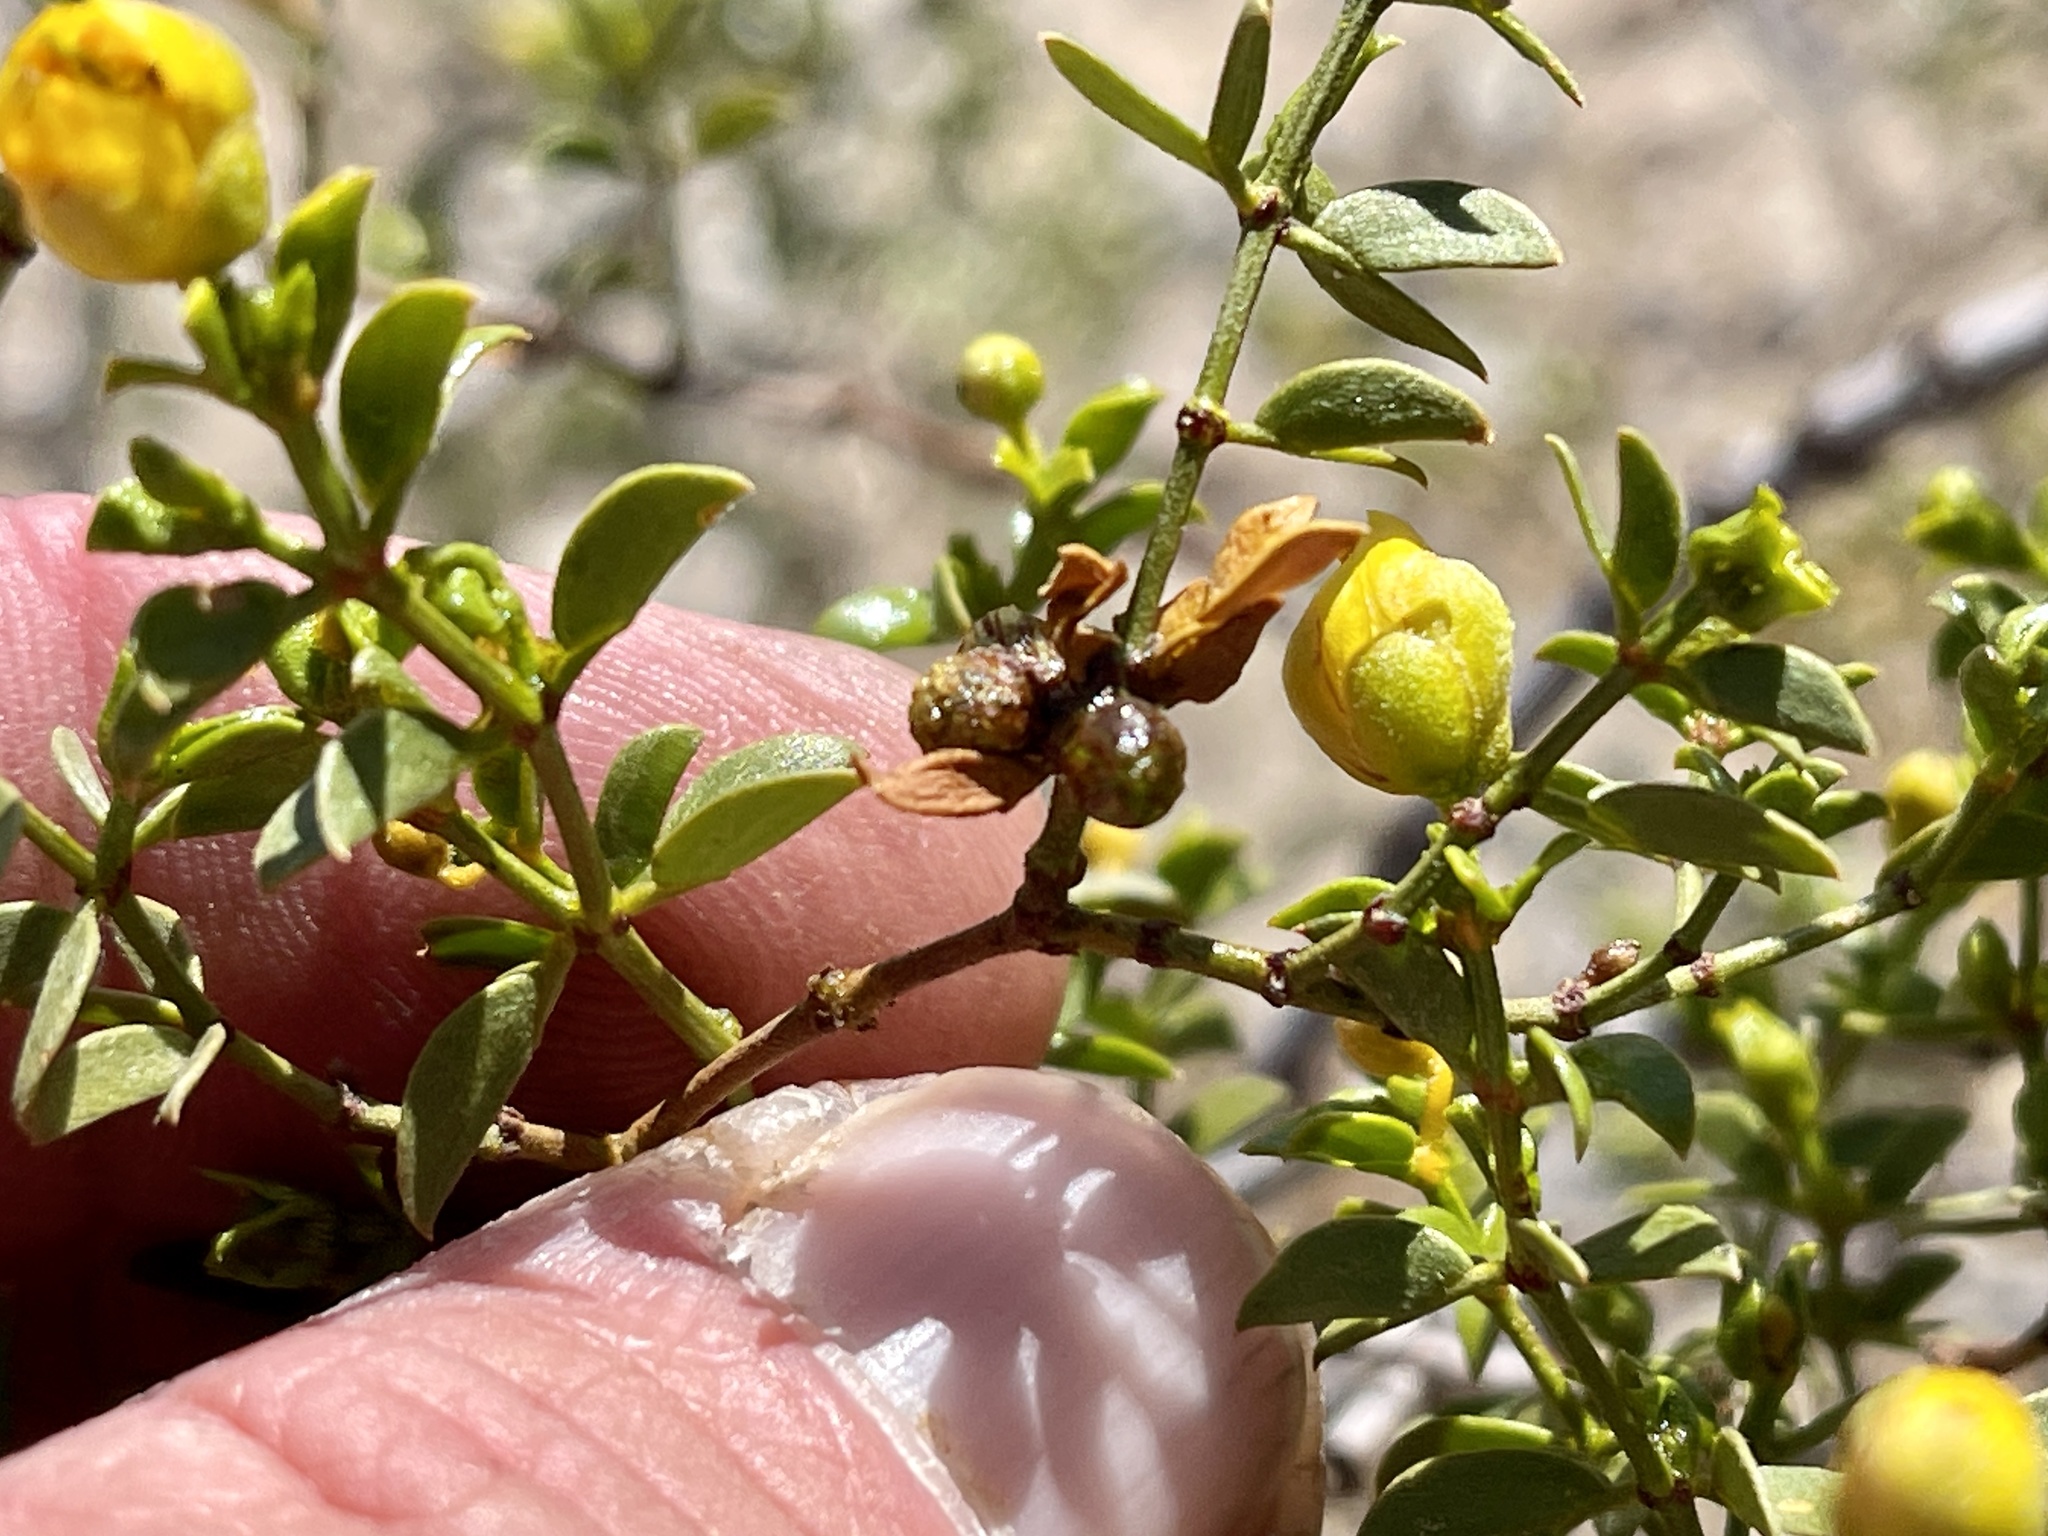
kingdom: Animalia
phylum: Arthropoda
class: Insecta
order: Diptera
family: Cecidomyiidae
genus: Asphondylia
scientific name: Asphondylia resinosa
